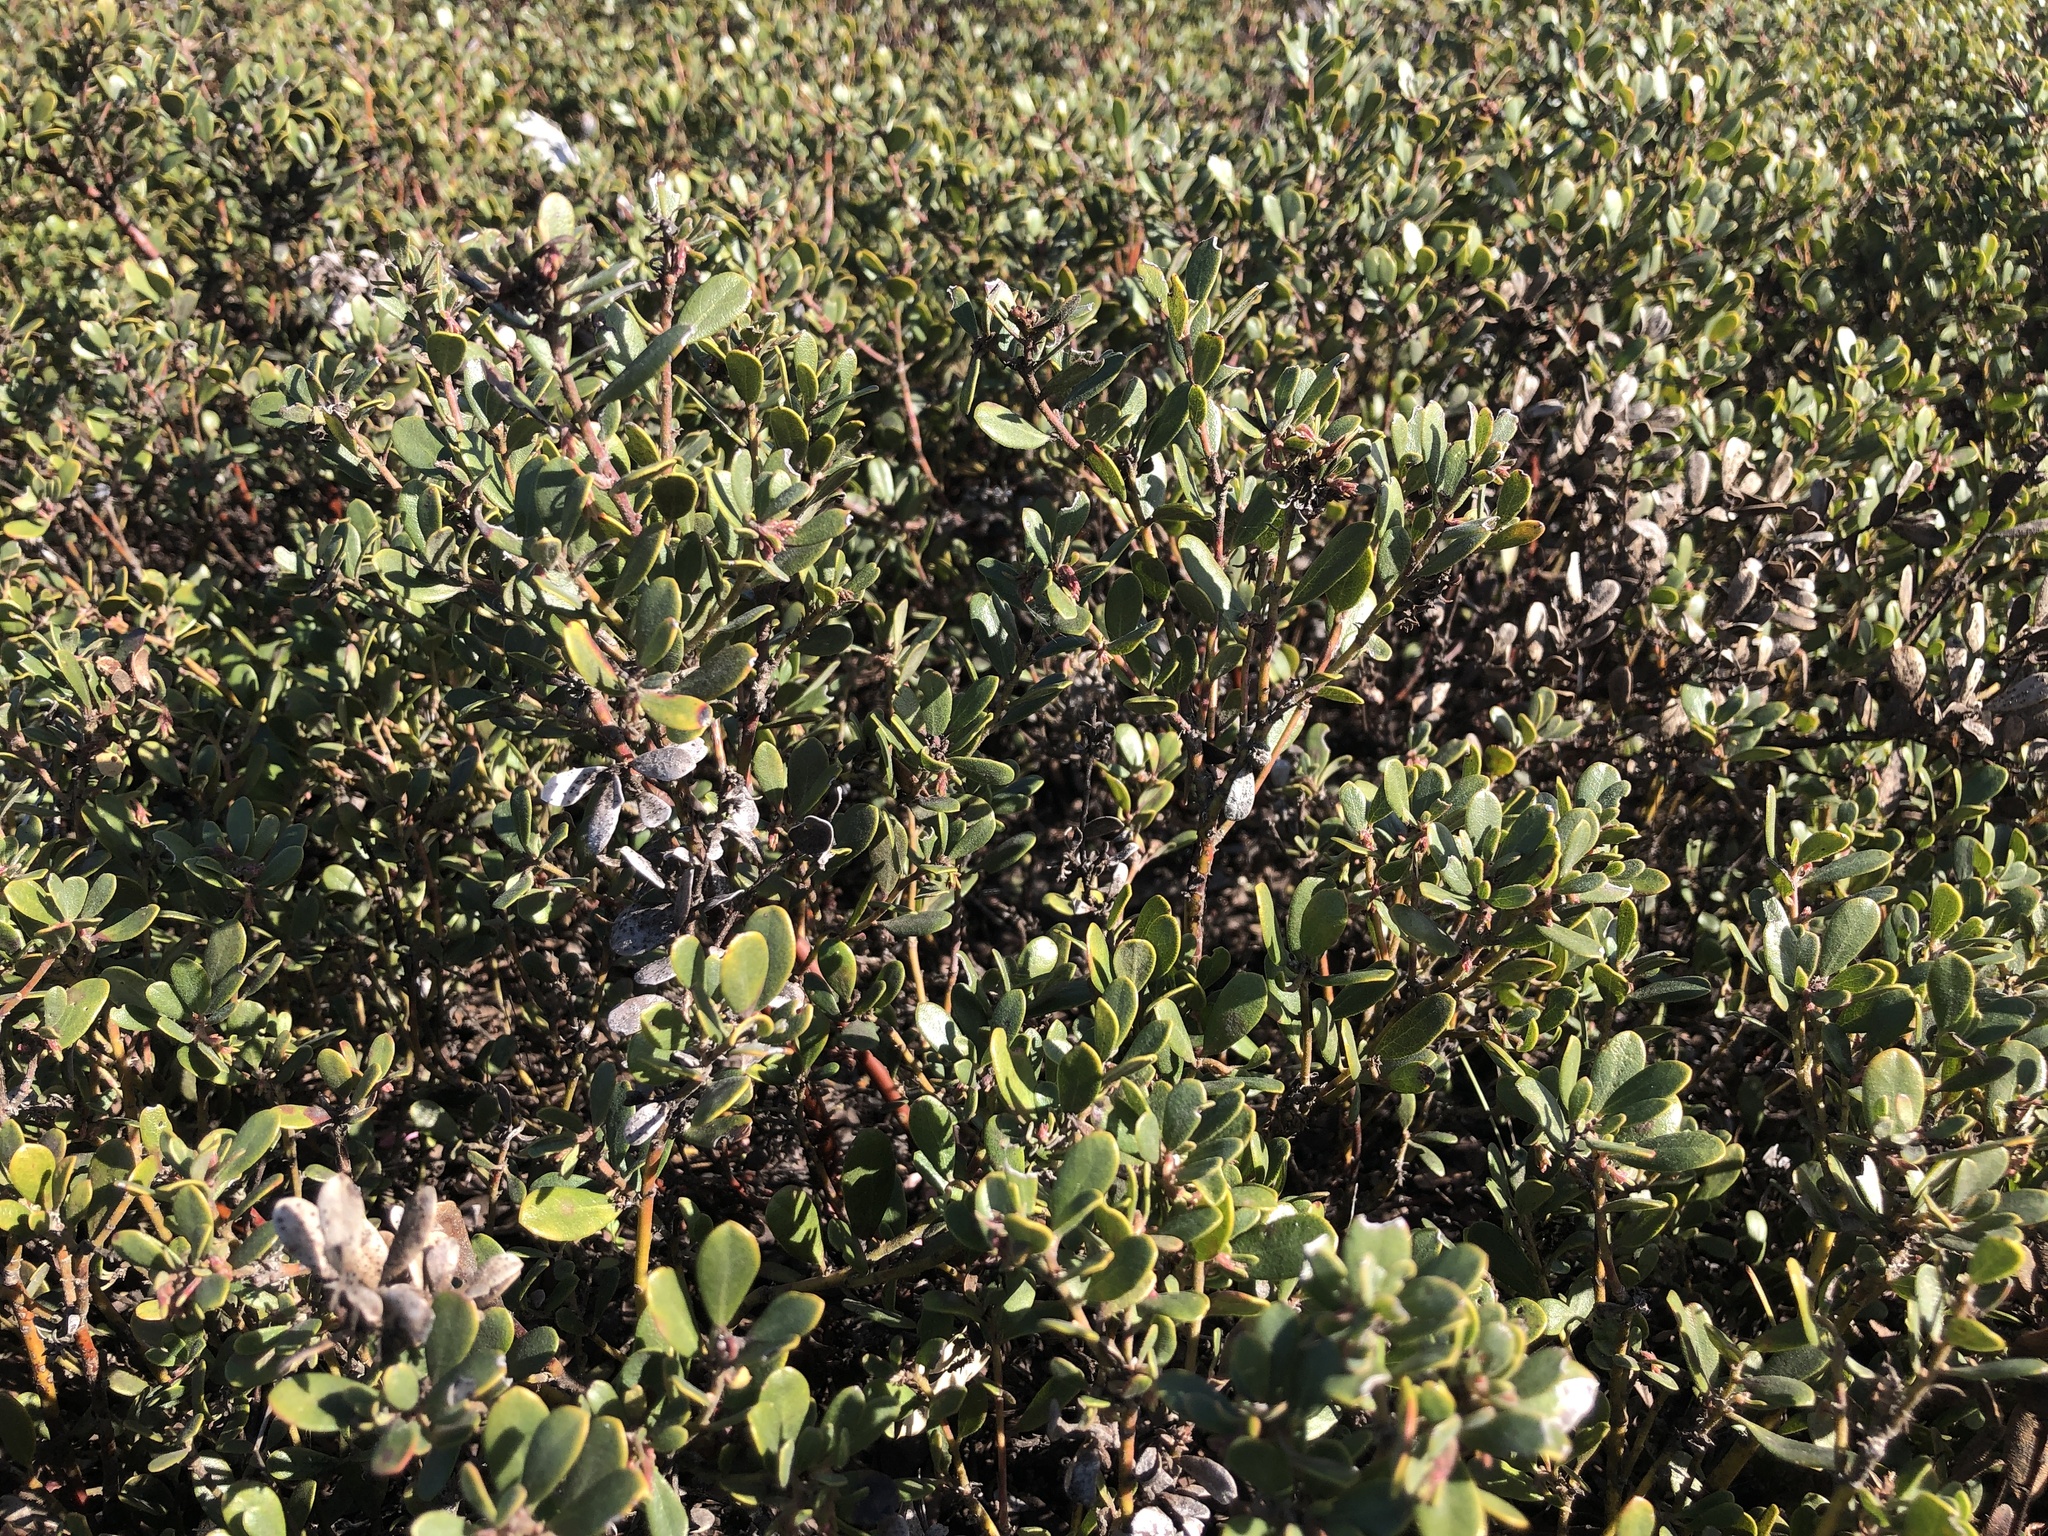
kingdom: Plantae
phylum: Tracheophyta
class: Magnoliopsida
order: Ericales
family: Ericaceae
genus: Arctostaphylos
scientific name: Arctostaphylos pumila
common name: Sandmat manzanita
